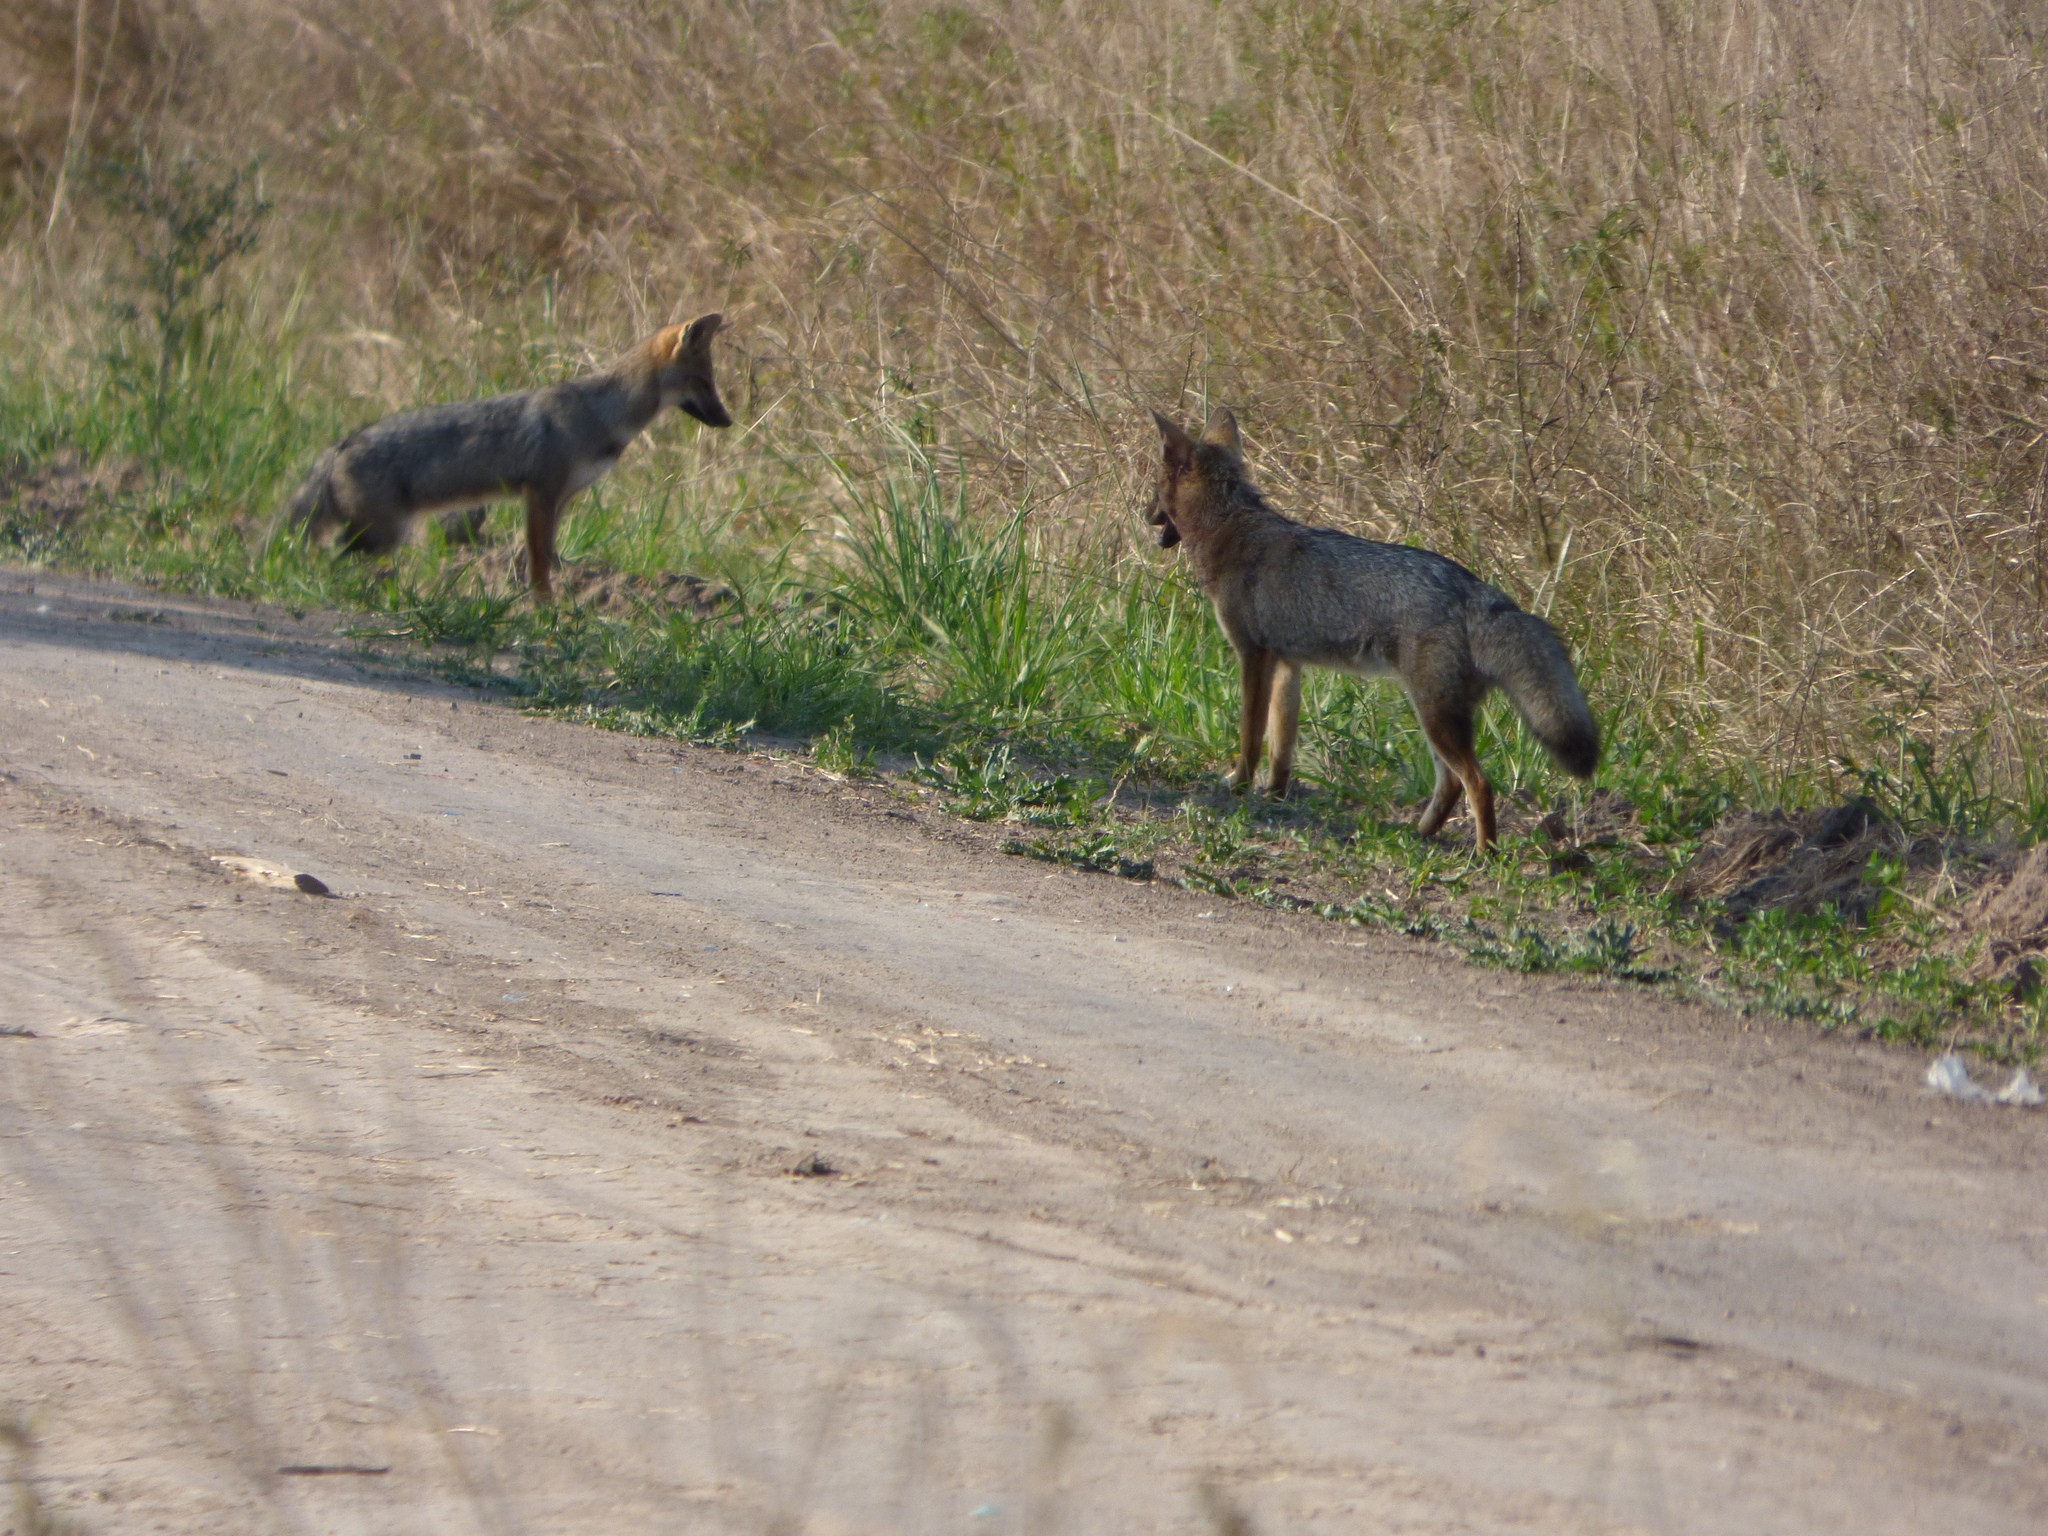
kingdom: Animalia
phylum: Chordata
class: Mammalia
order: Carnivora
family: Canidae
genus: Lycalopex
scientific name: Lycalopex gymnocercus
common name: Pampas fox
